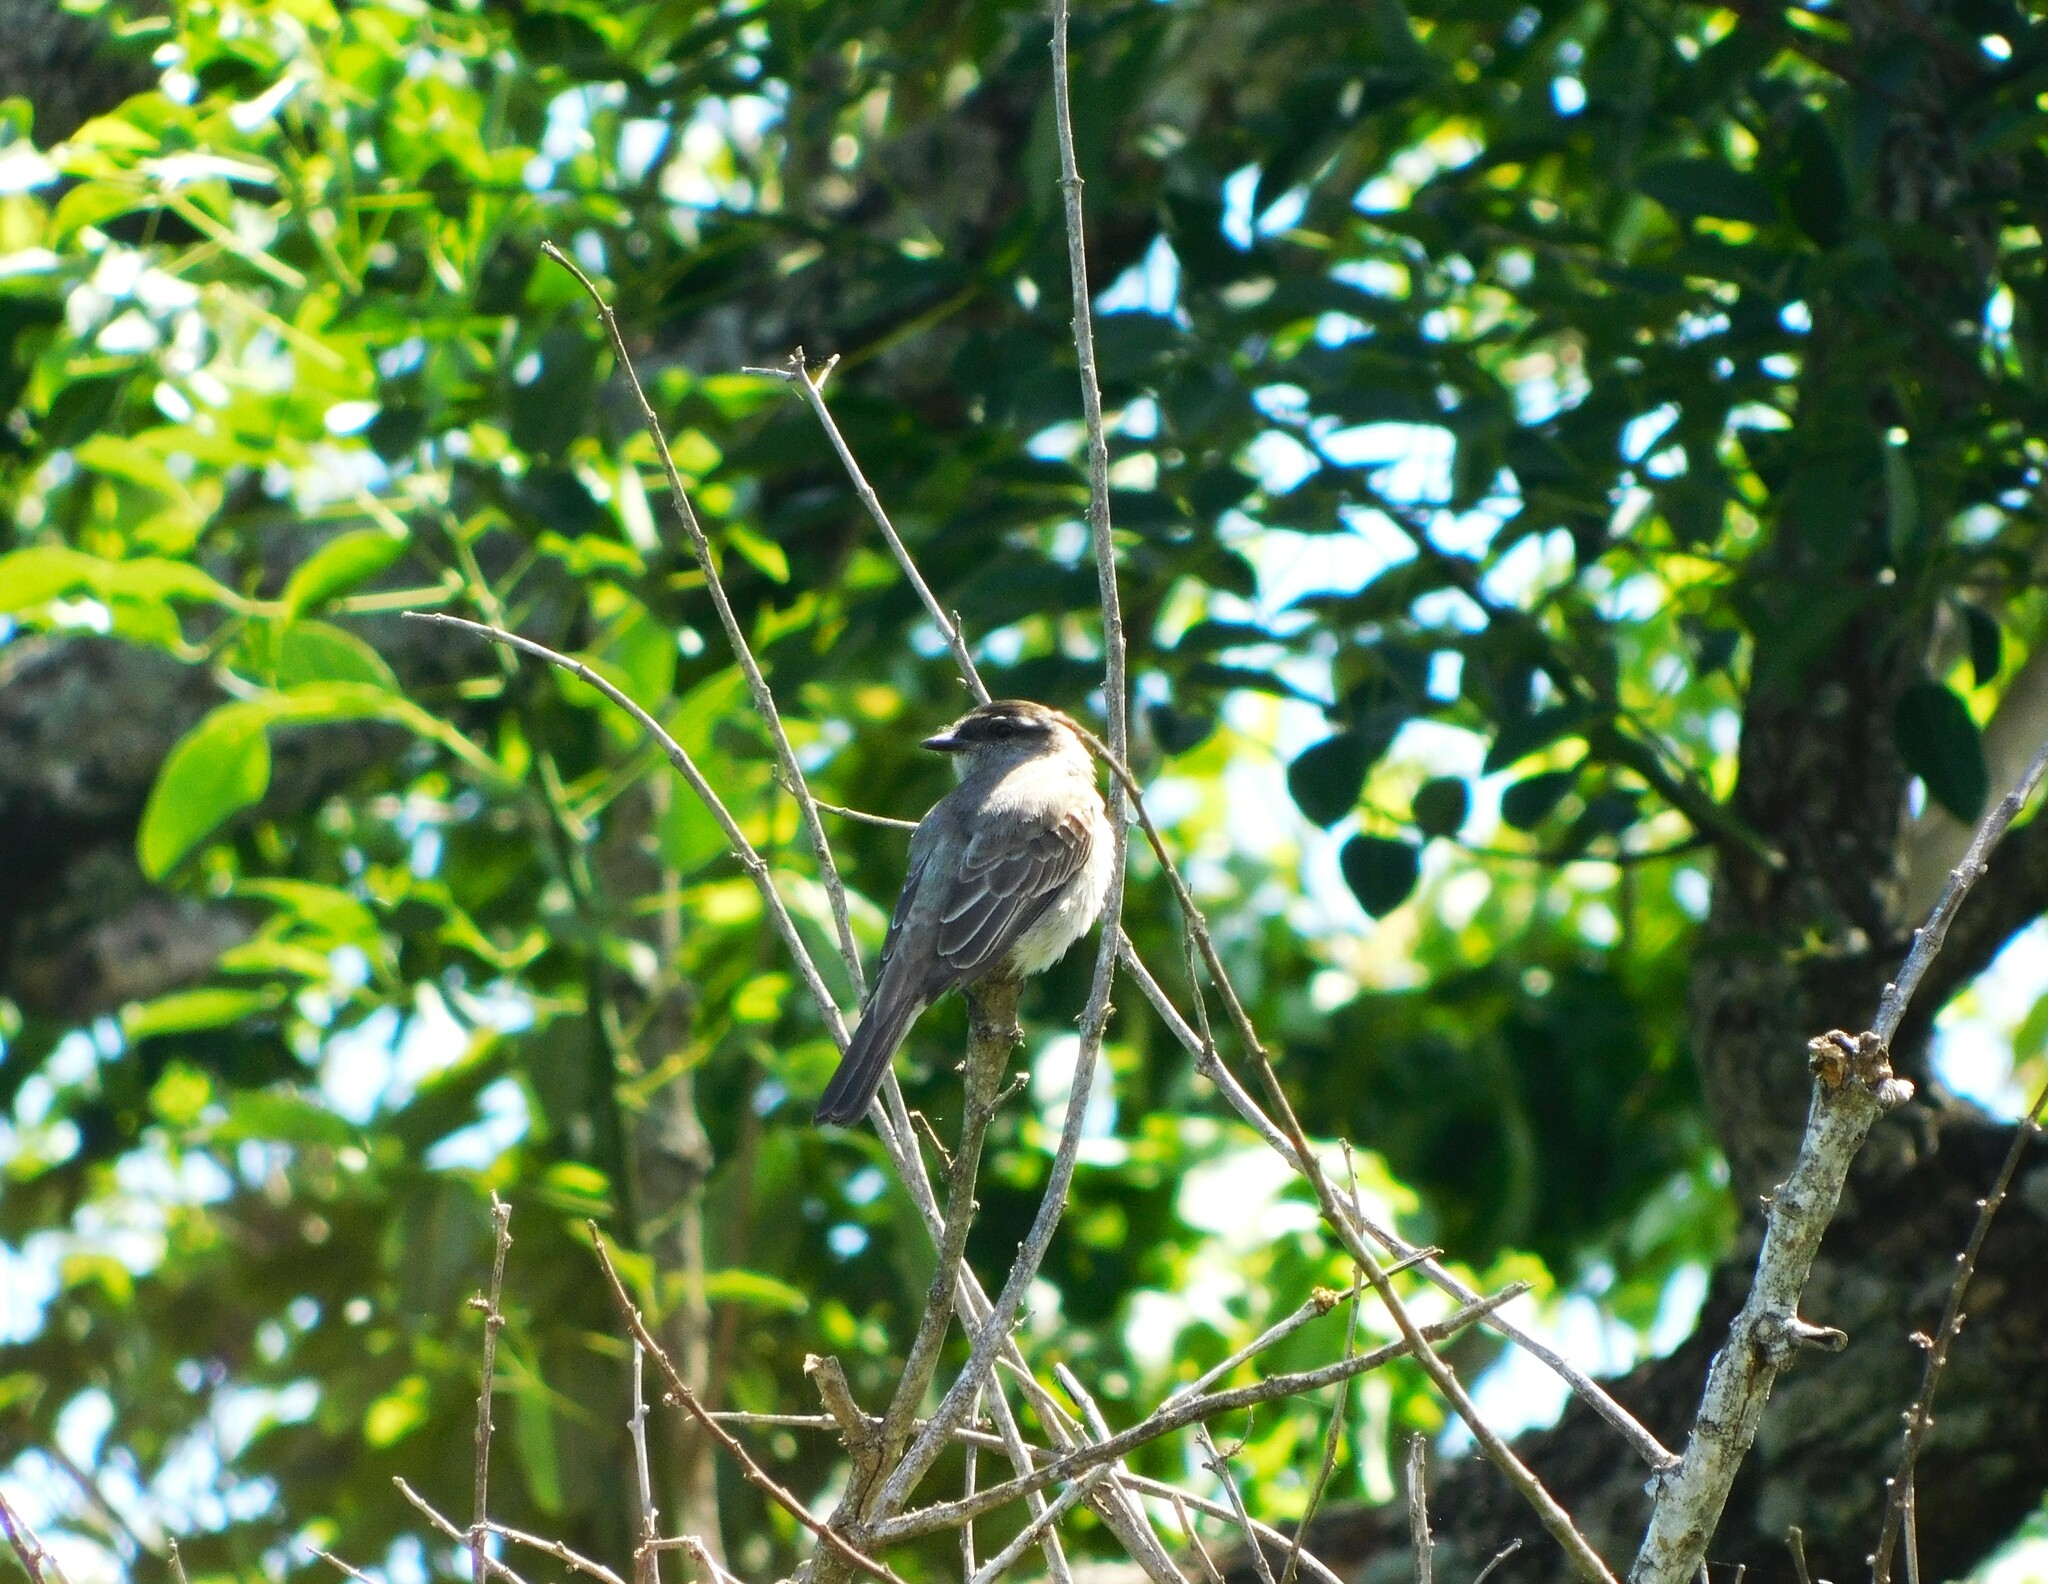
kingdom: Animalia
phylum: Chordata
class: Aves
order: Passeriformes
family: Tyrannidae
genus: Empidonomus
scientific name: Empidonomus aurantioatrocristatus
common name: Crowned slaty flycatcher
